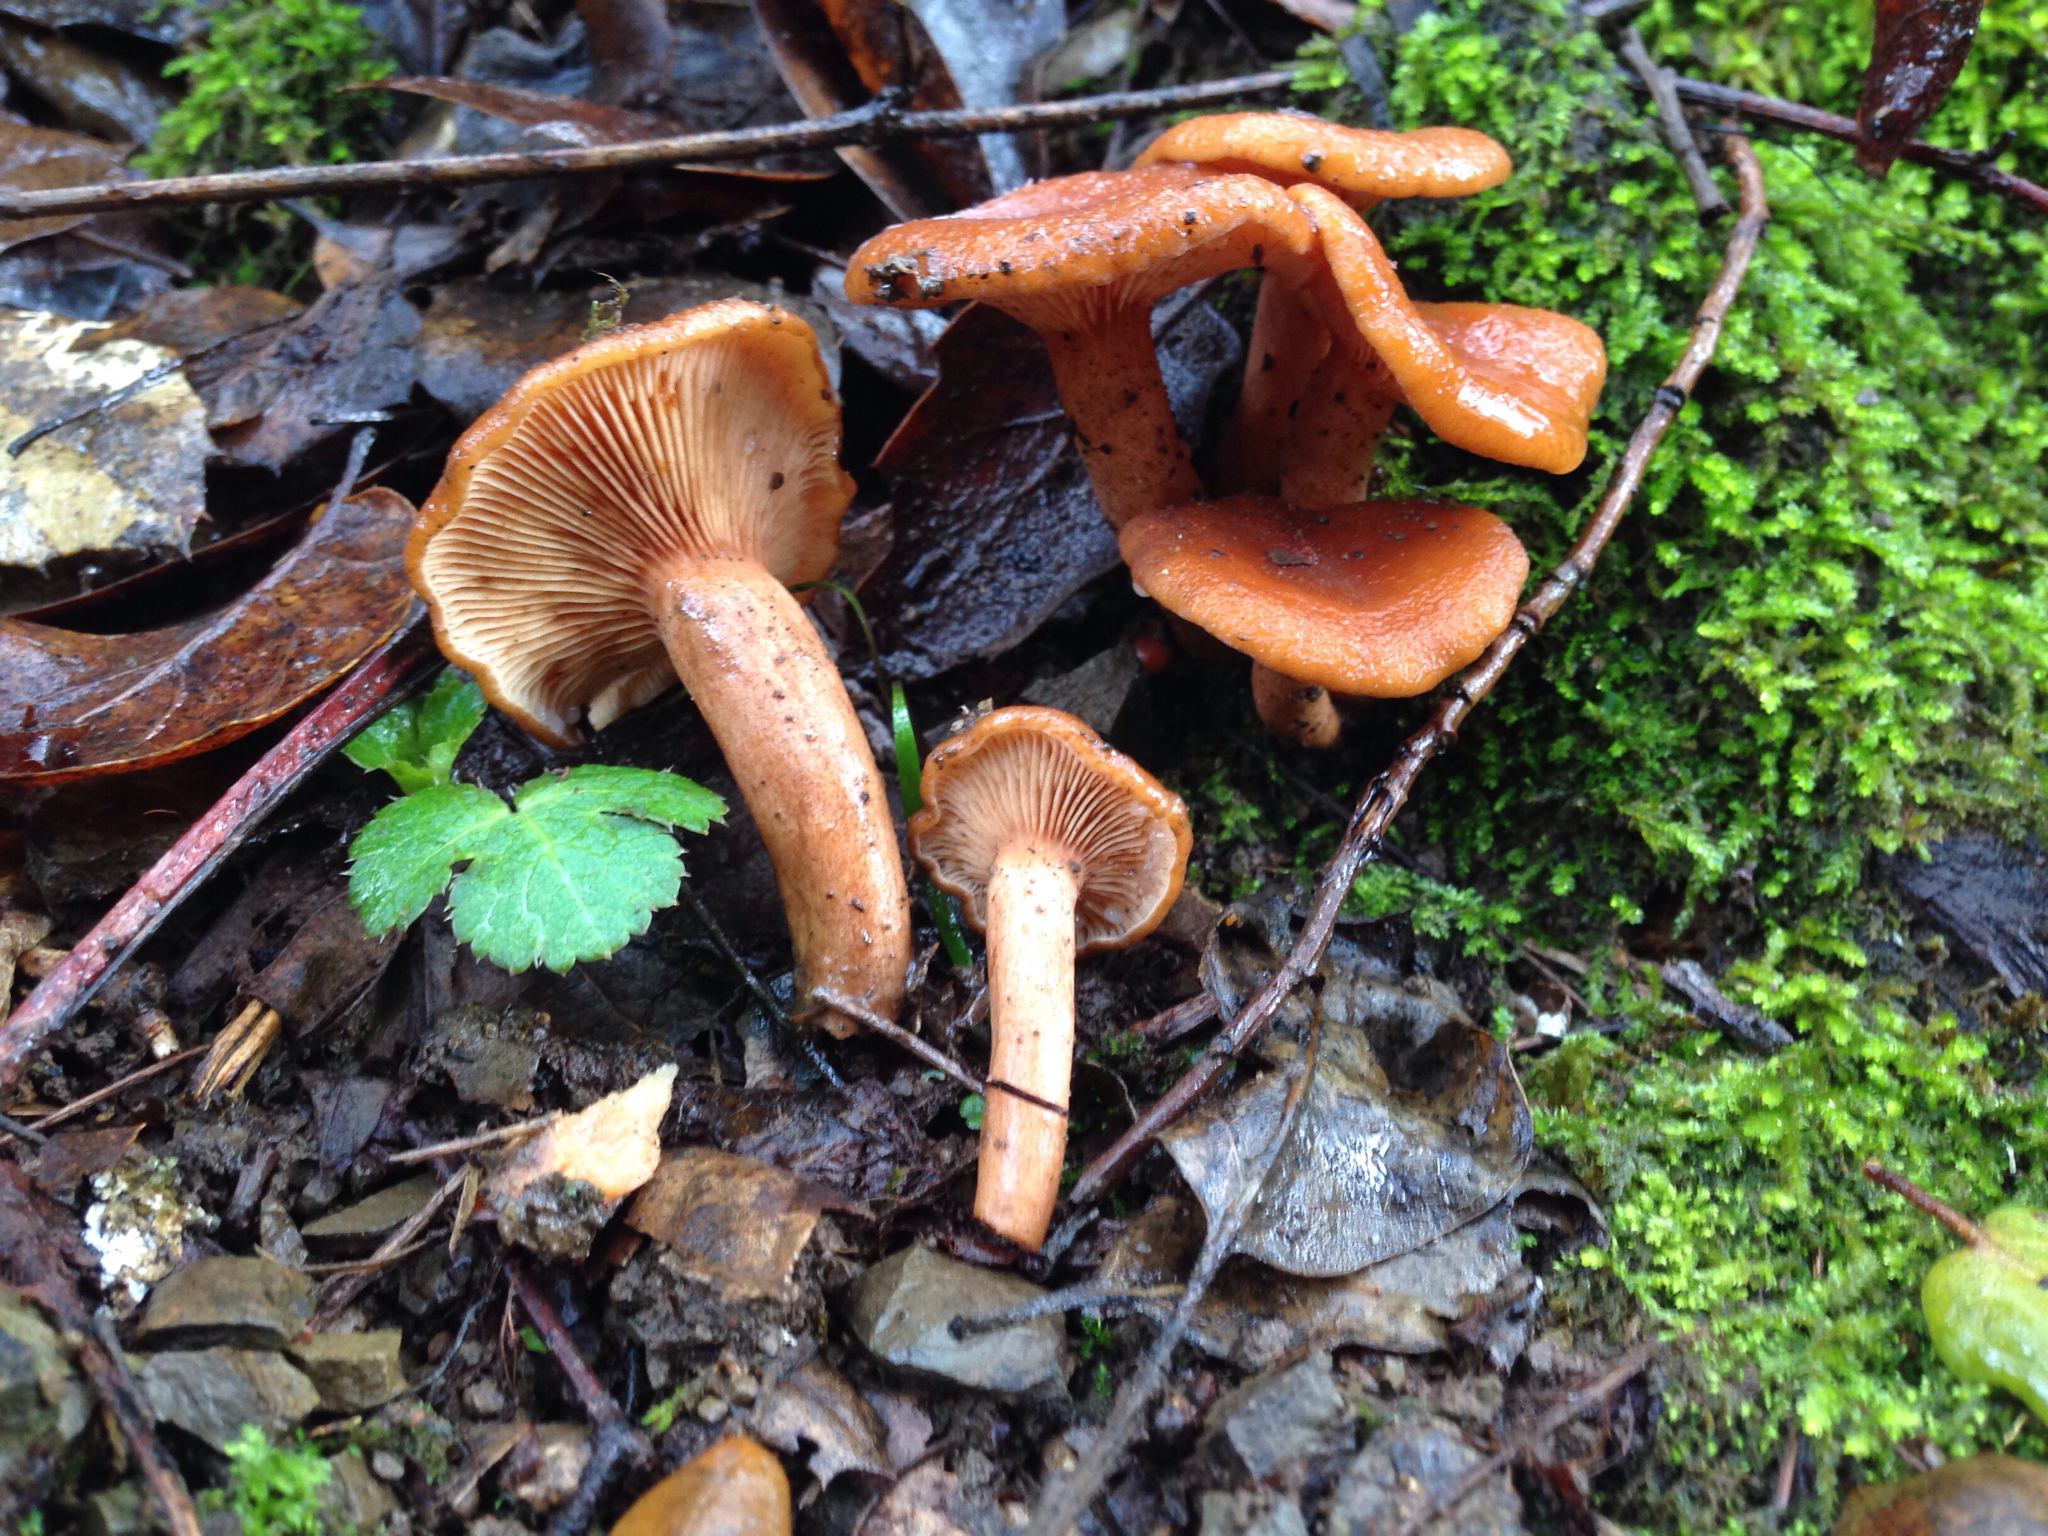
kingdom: Fungi
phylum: Basidiomycota
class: Agaricomycetes
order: Russulales
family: Russulaceae
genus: Lactarius
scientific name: Lactarius rubidus
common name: Candy cap
